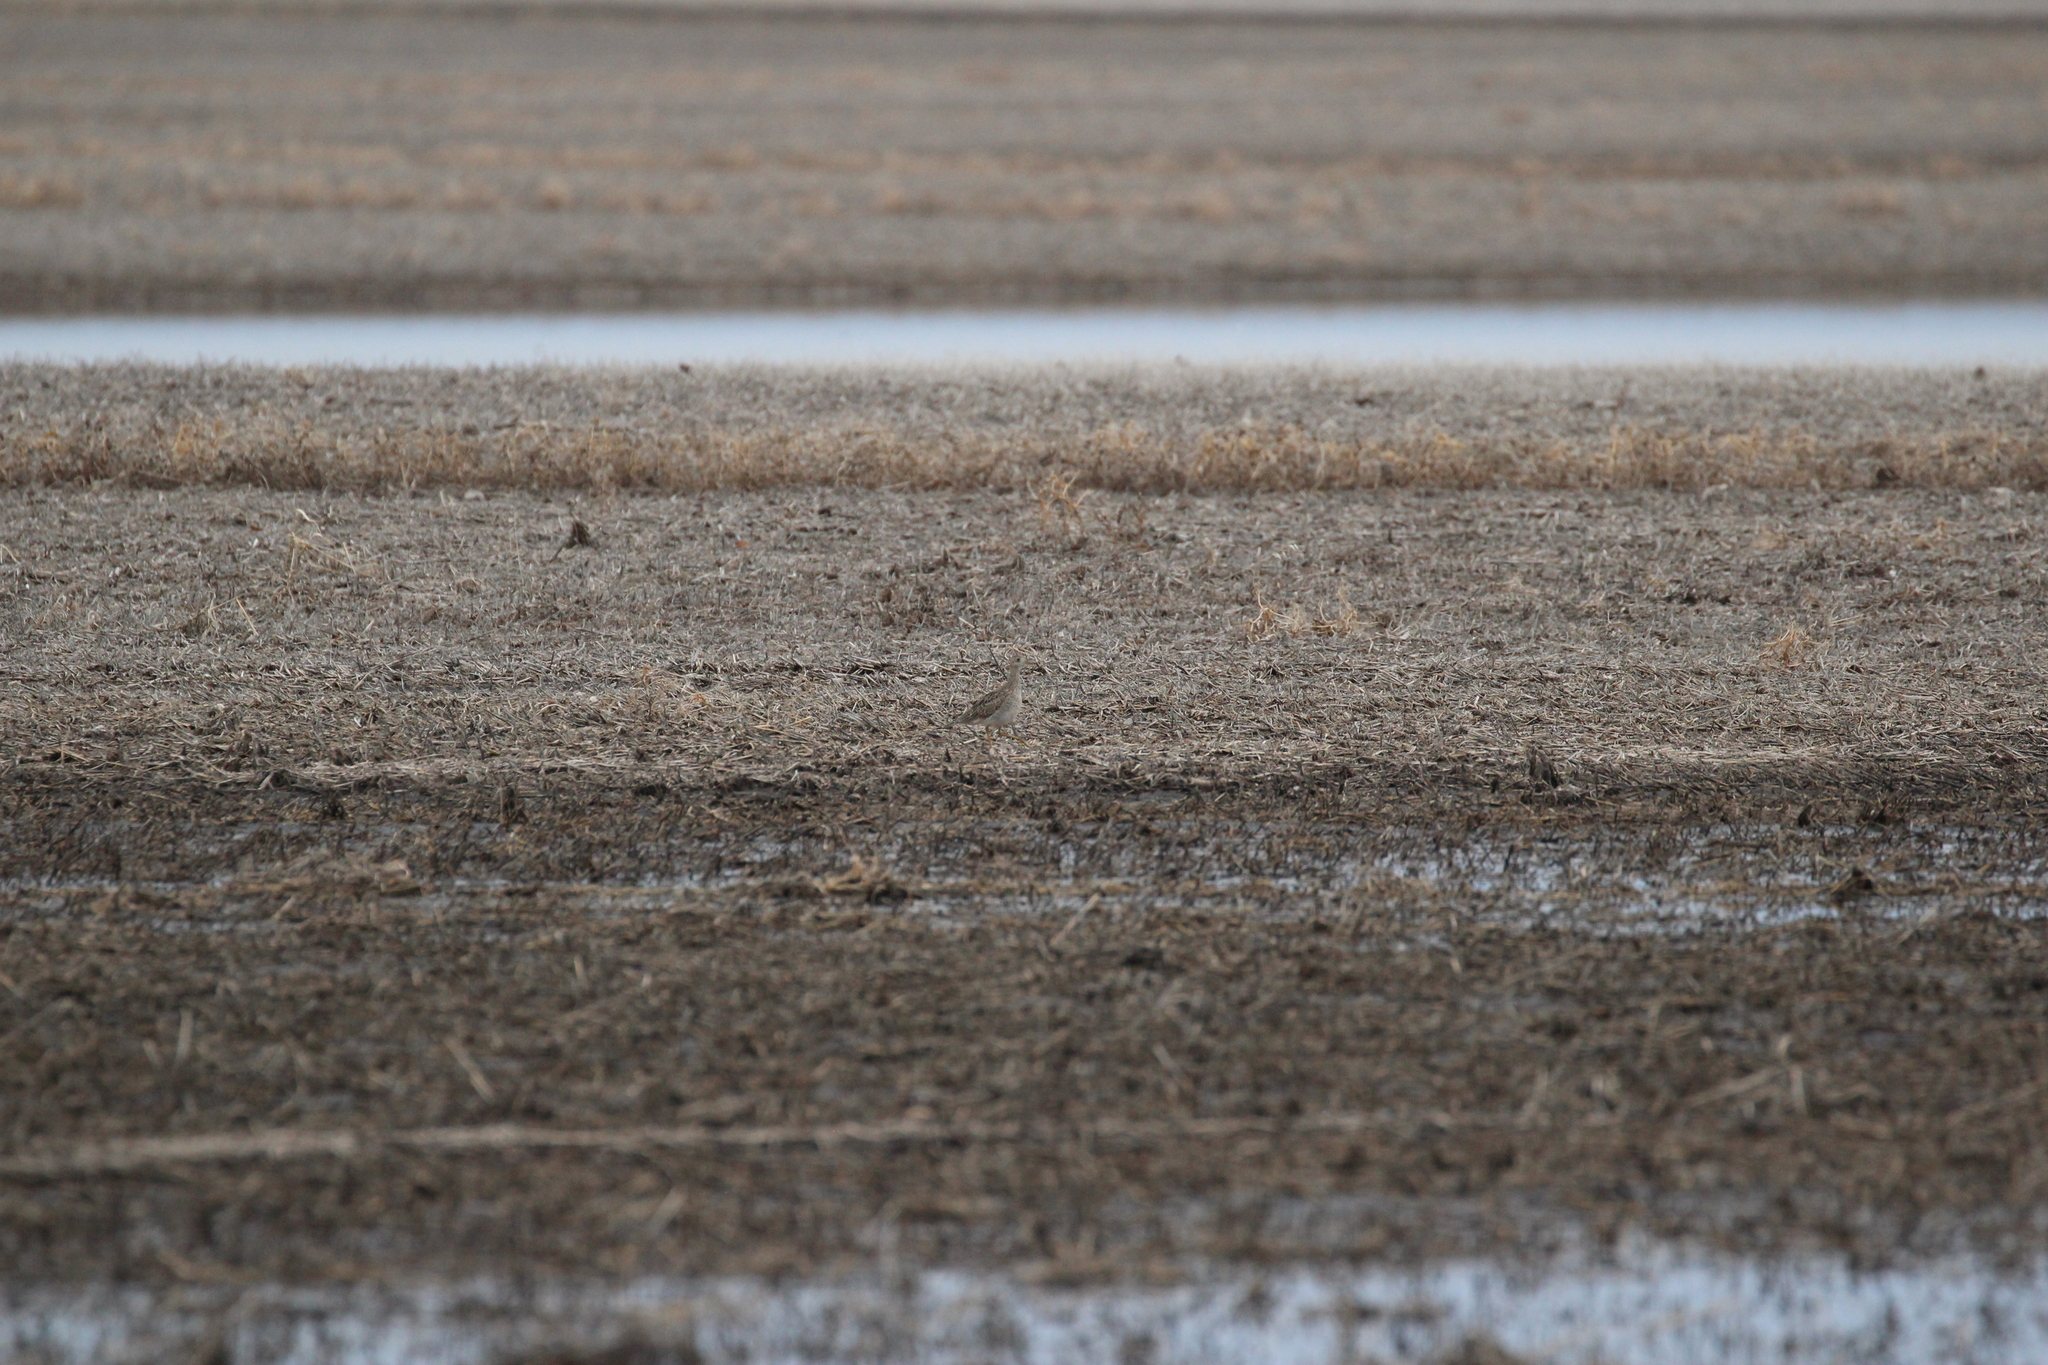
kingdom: Animalia
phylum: Chordata
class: Aves
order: Charadriiformes
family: Scolopacidae
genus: Bartramia
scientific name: Bartramia longicauda
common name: Upland sandpiper
